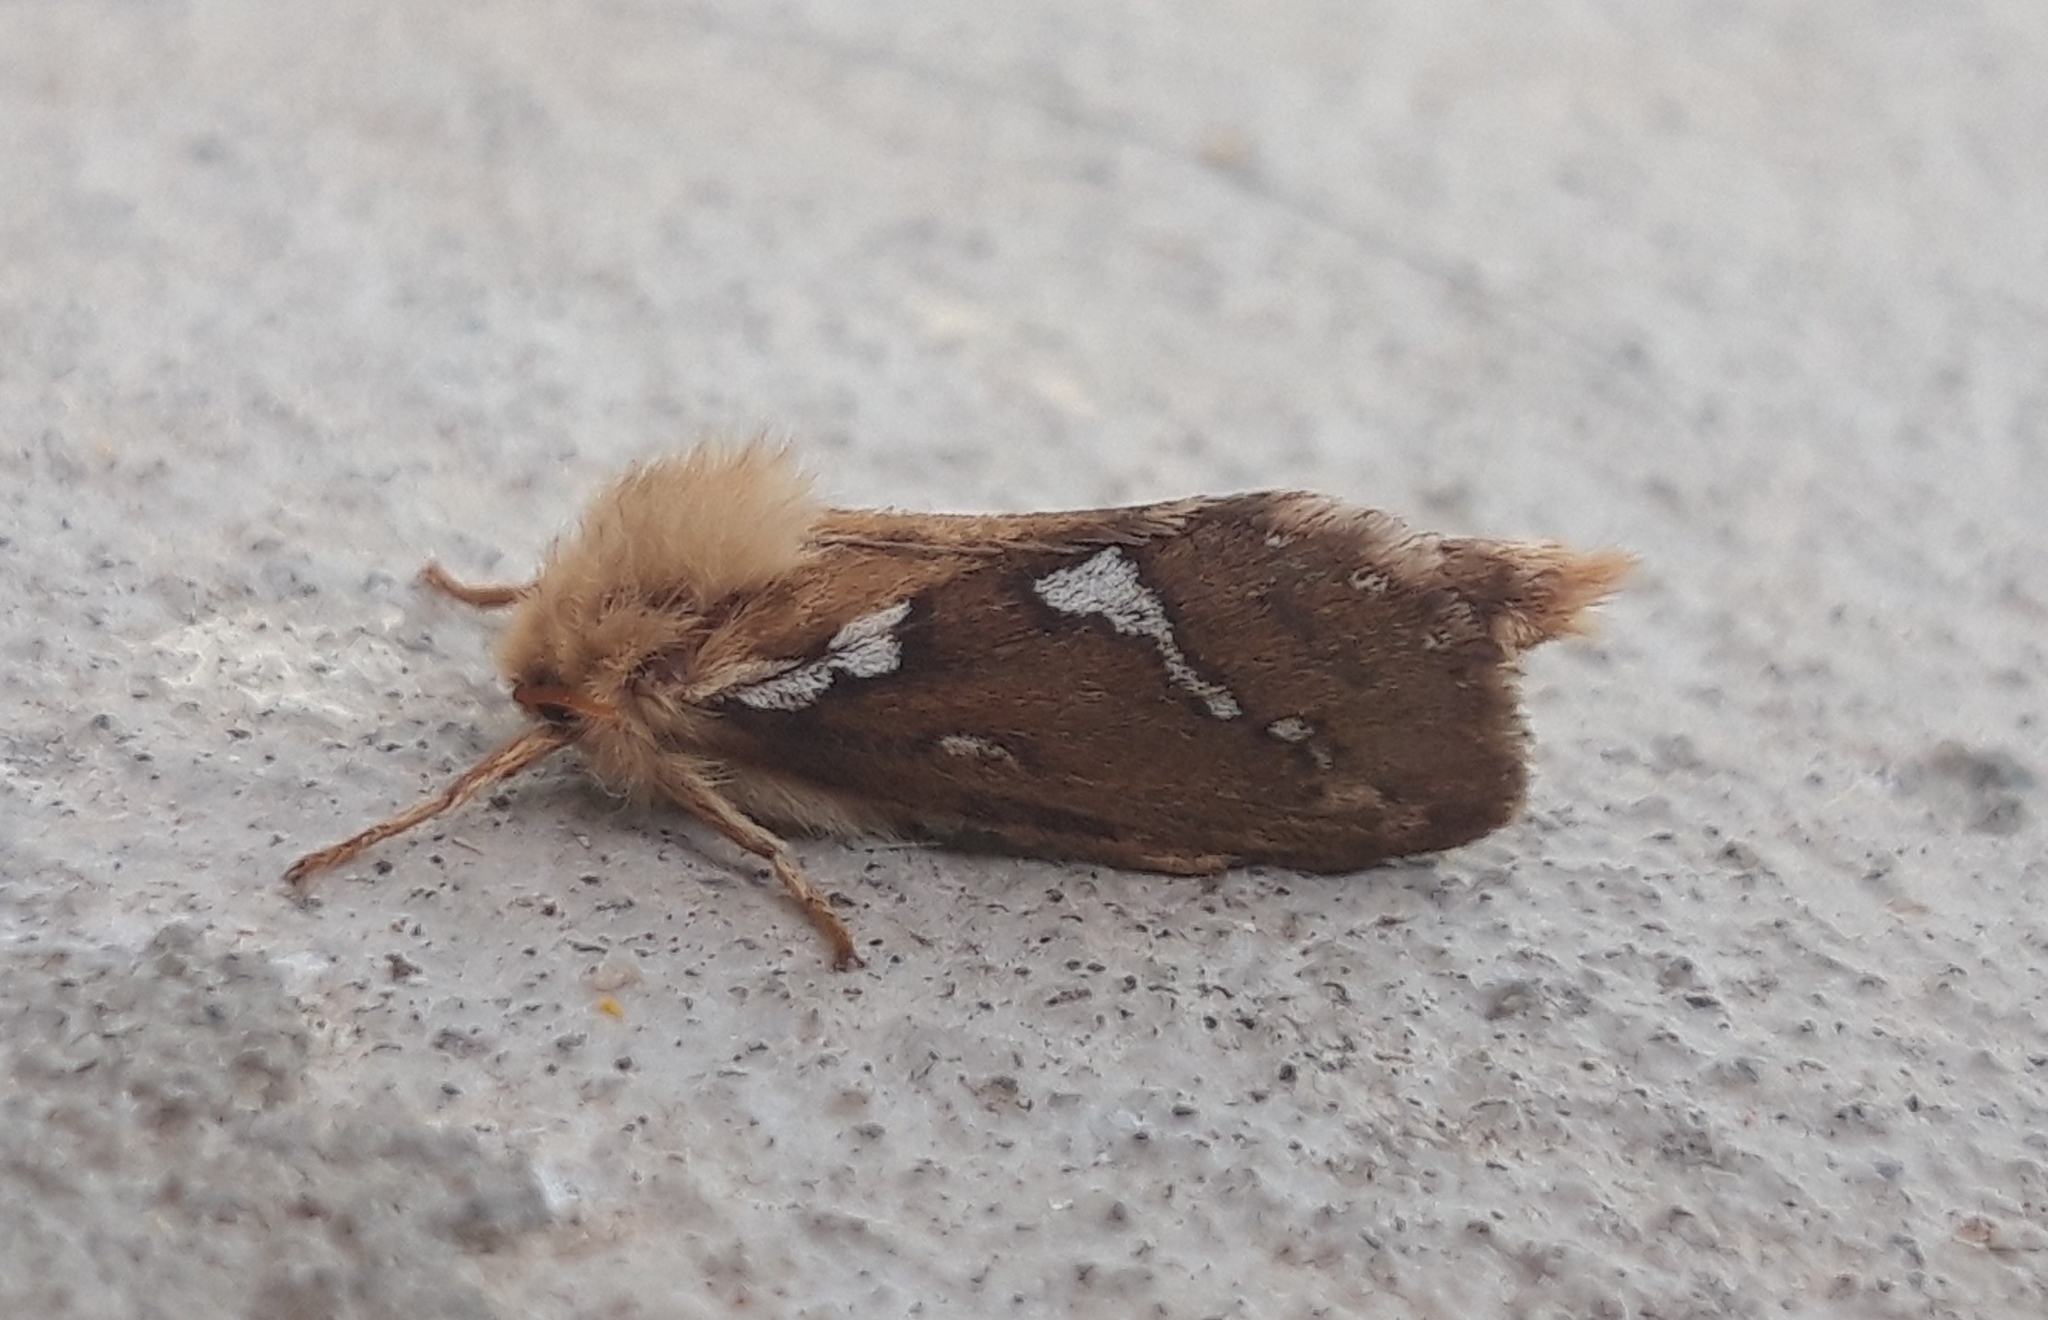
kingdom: Animalia
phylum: Arthropoda
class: Insecta
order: Lepidoptera
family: Hepialidae
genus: Korscheltellus
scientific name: Korscheltellus lupulina
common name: Common swift
